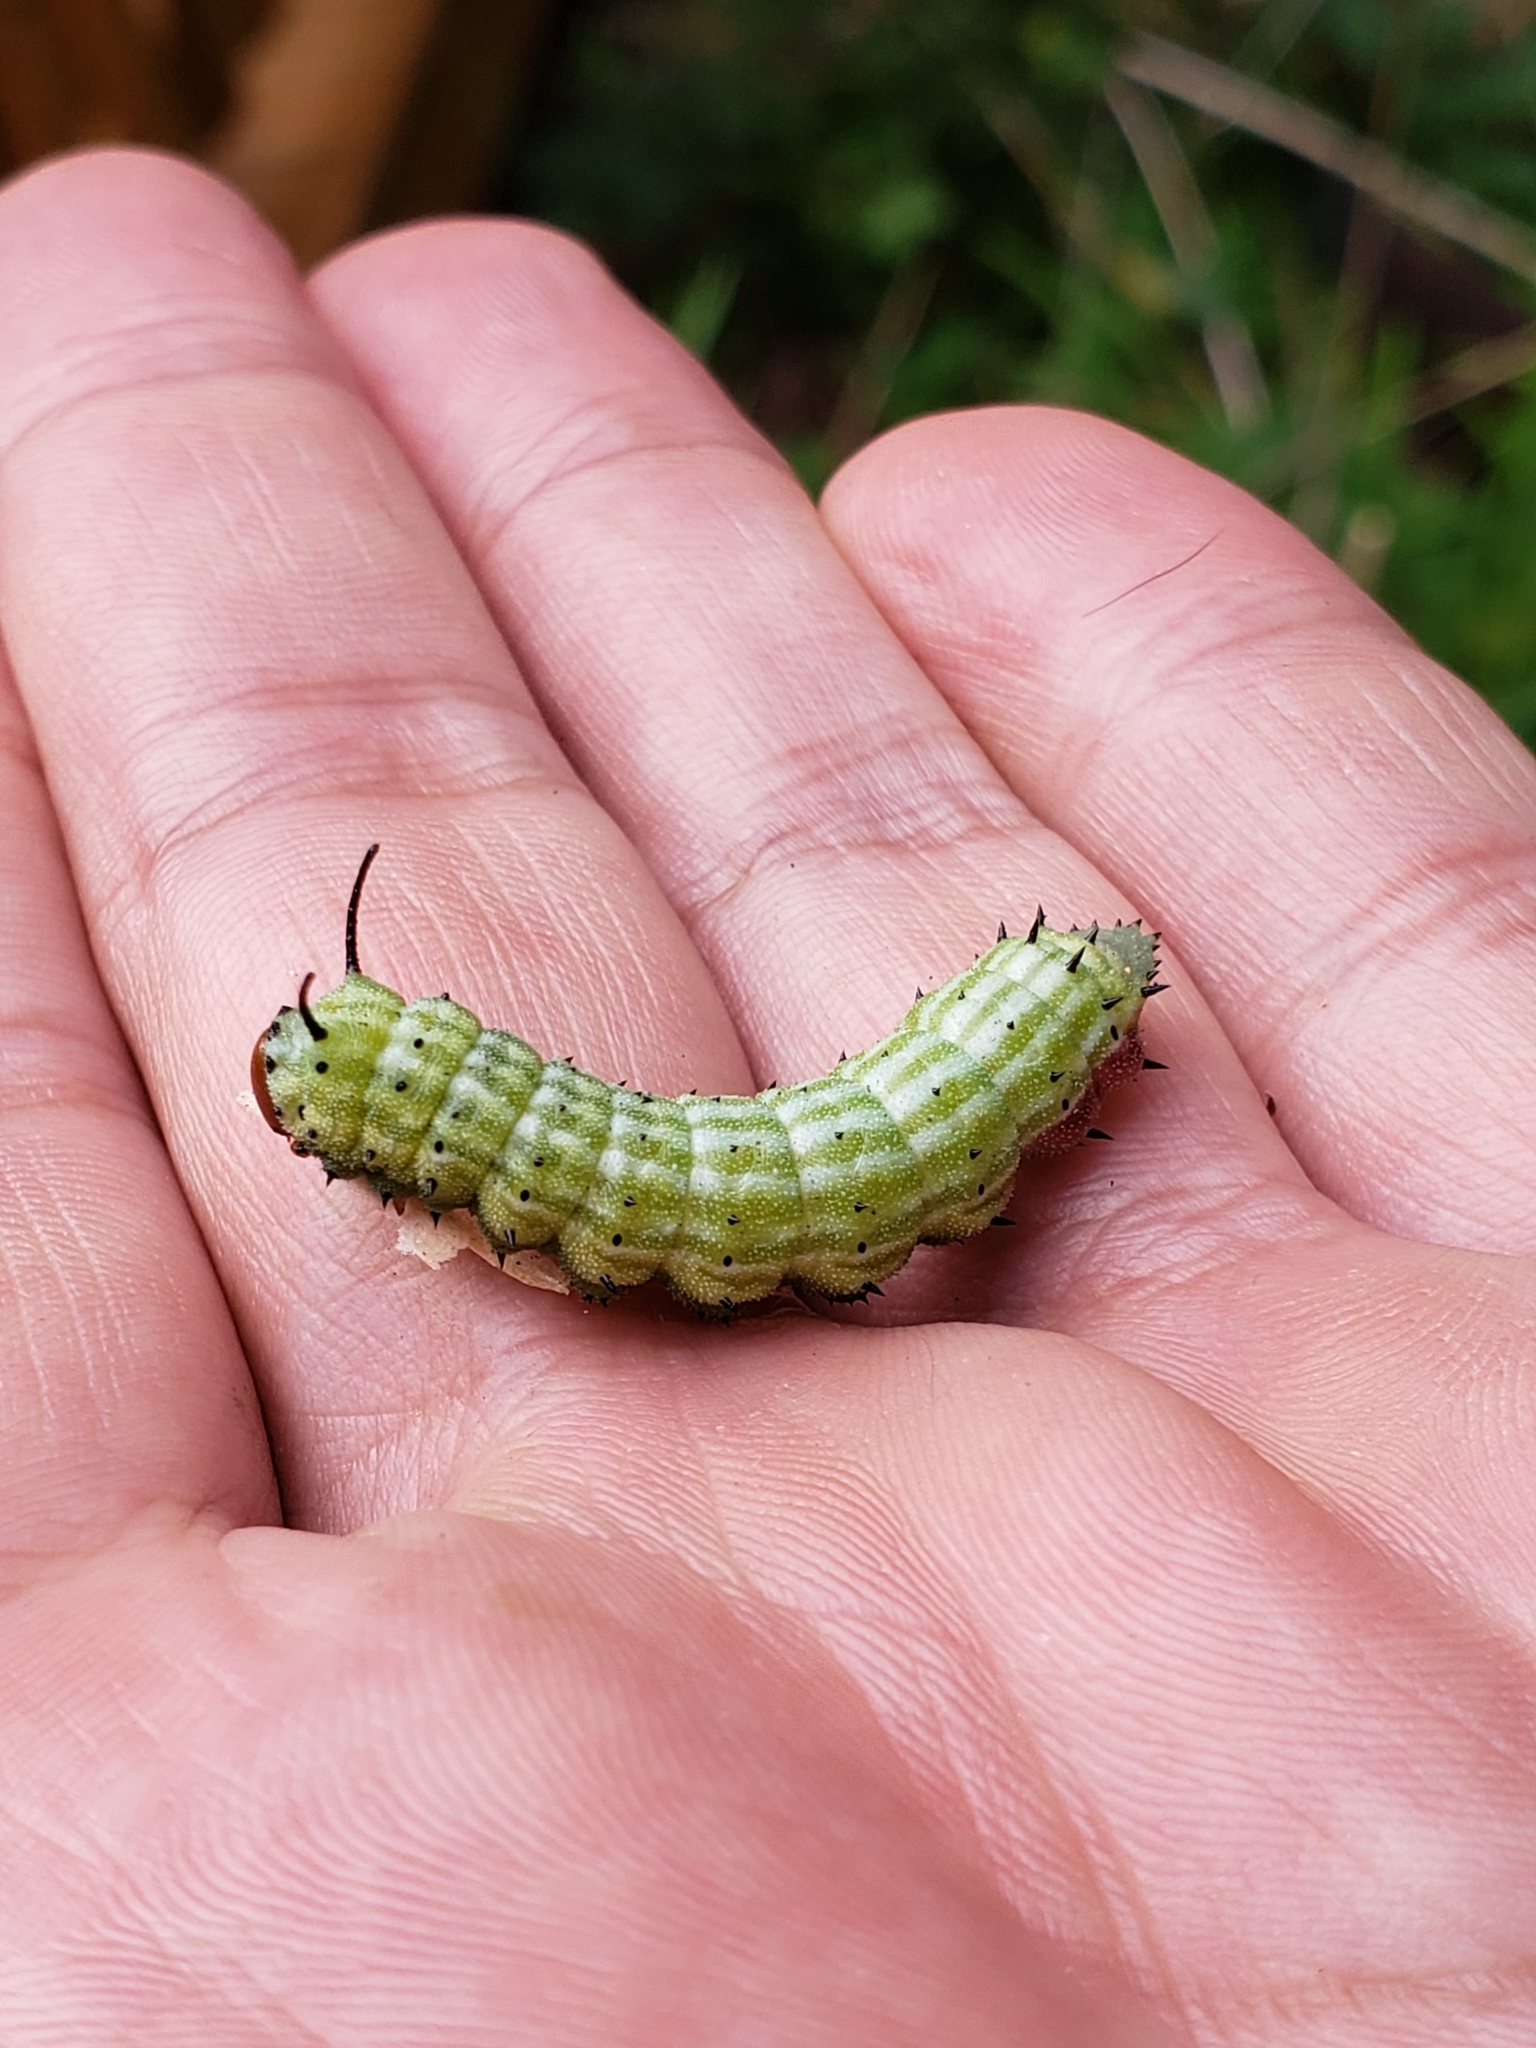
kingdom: Animalia
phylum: Arthropoda
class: Insecta
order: Lepidoptera
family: Saturniidae
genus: Dryocampa
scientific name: Dryocampa rubicunda
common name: Rosy maple moth
